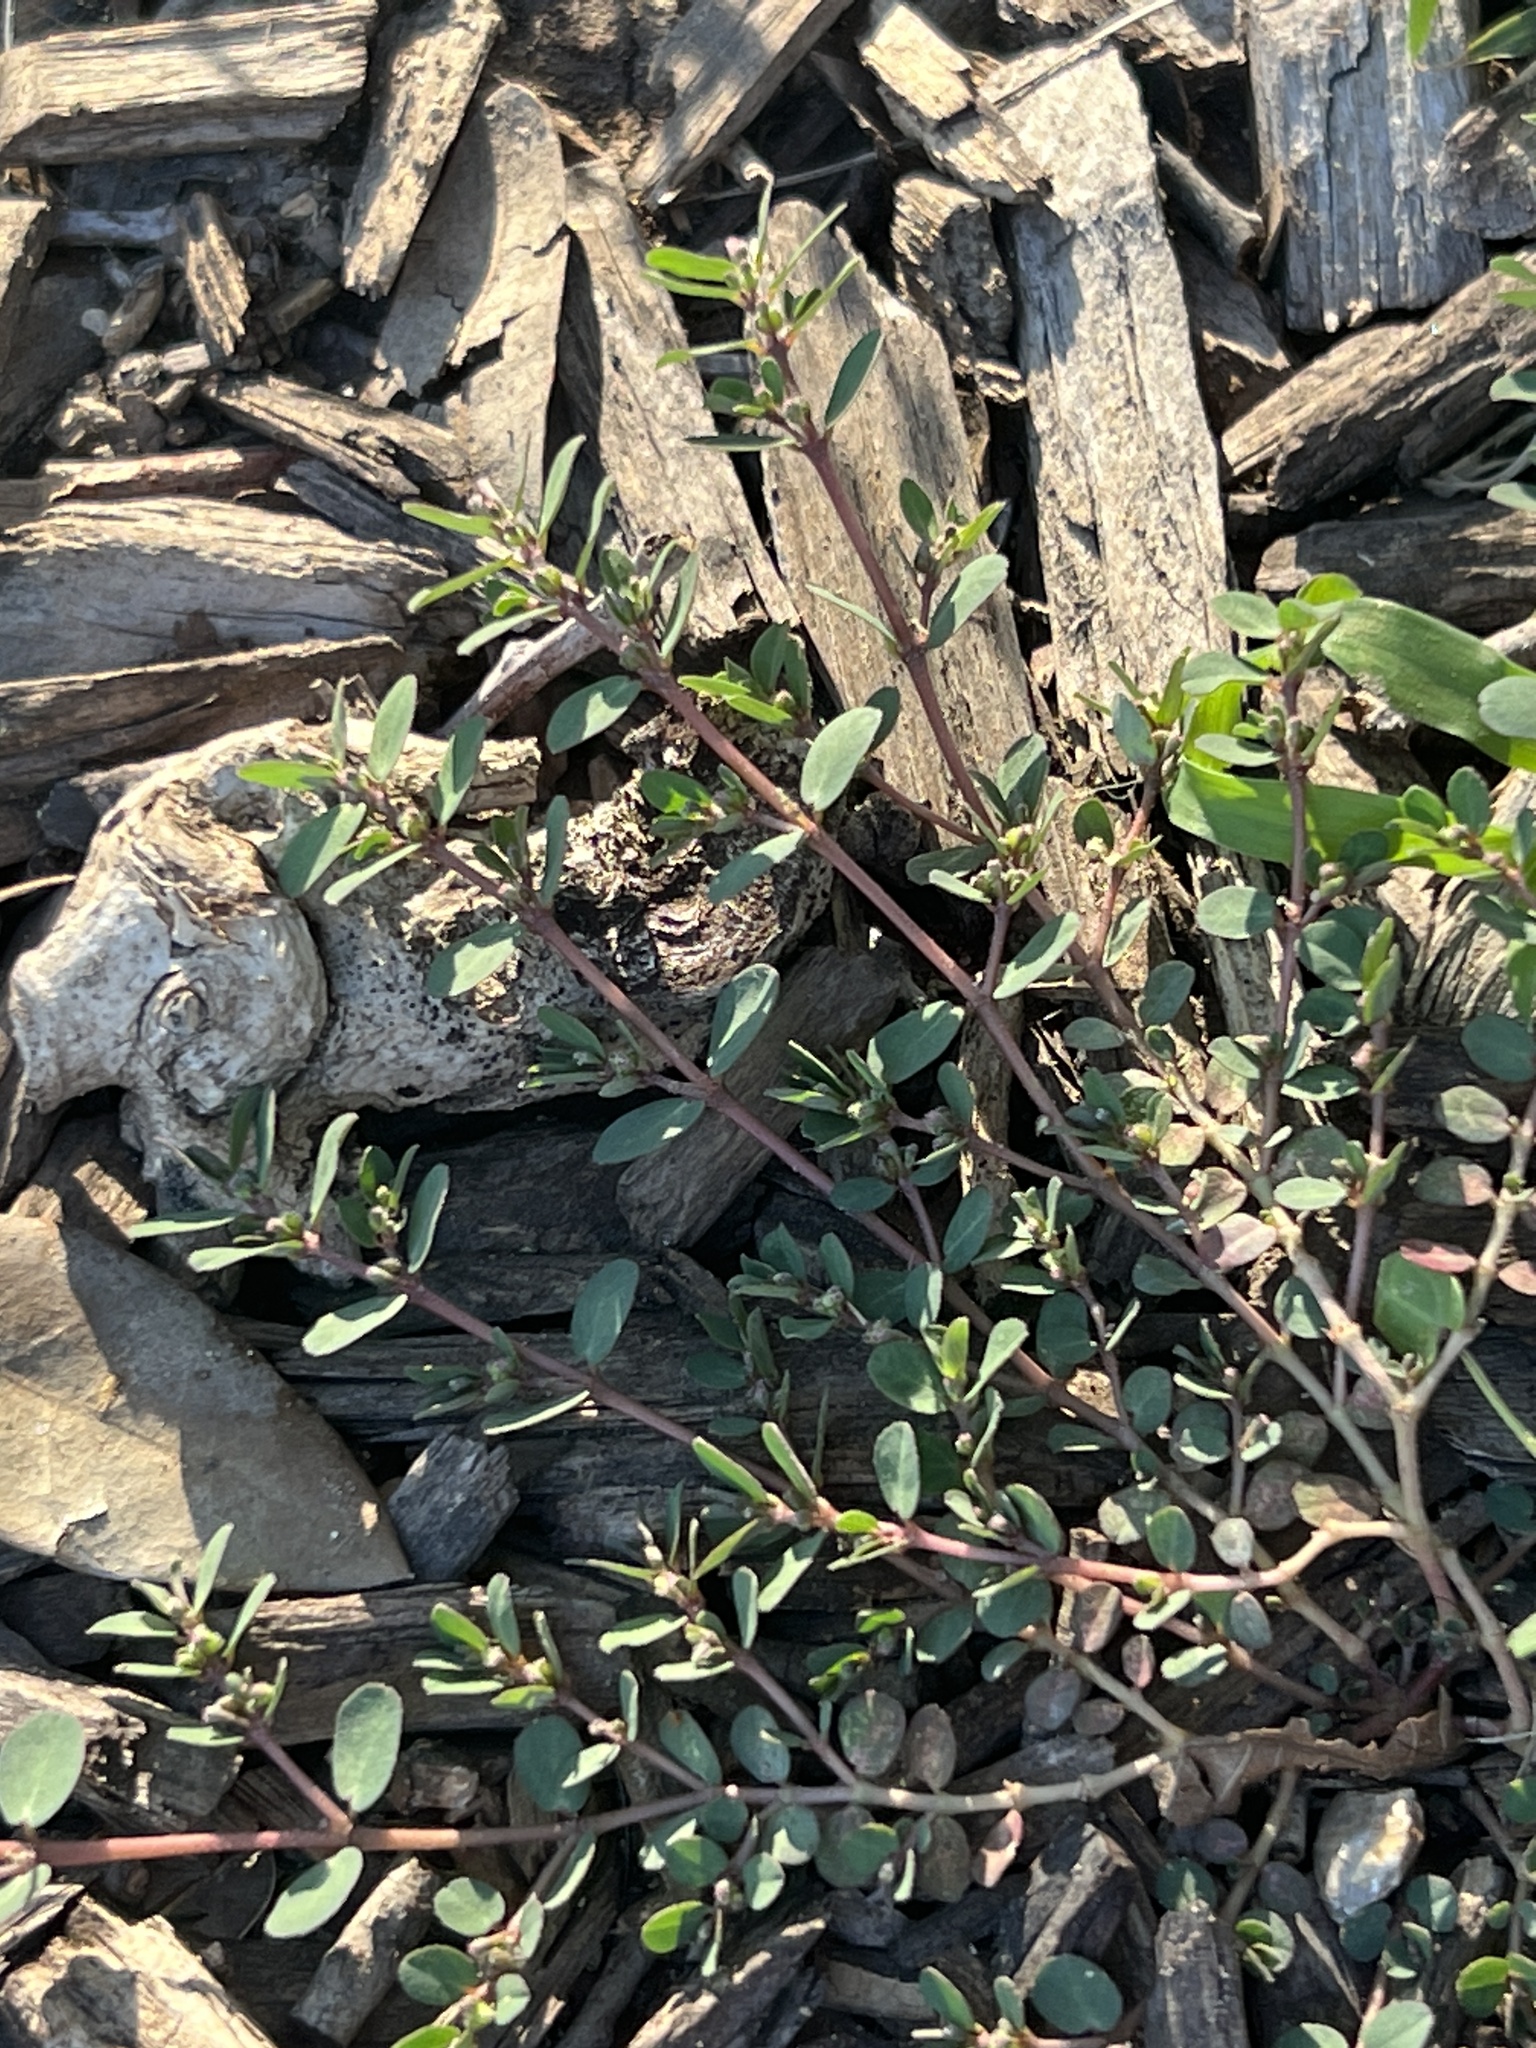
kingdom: Plantae
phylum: Tracheophyta
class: Magnoliopsida
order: Malpighiales
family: Euphorbiaceae
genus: Euphorbia
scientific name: Euphorbia prostrata
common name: Prostrate sandmat
